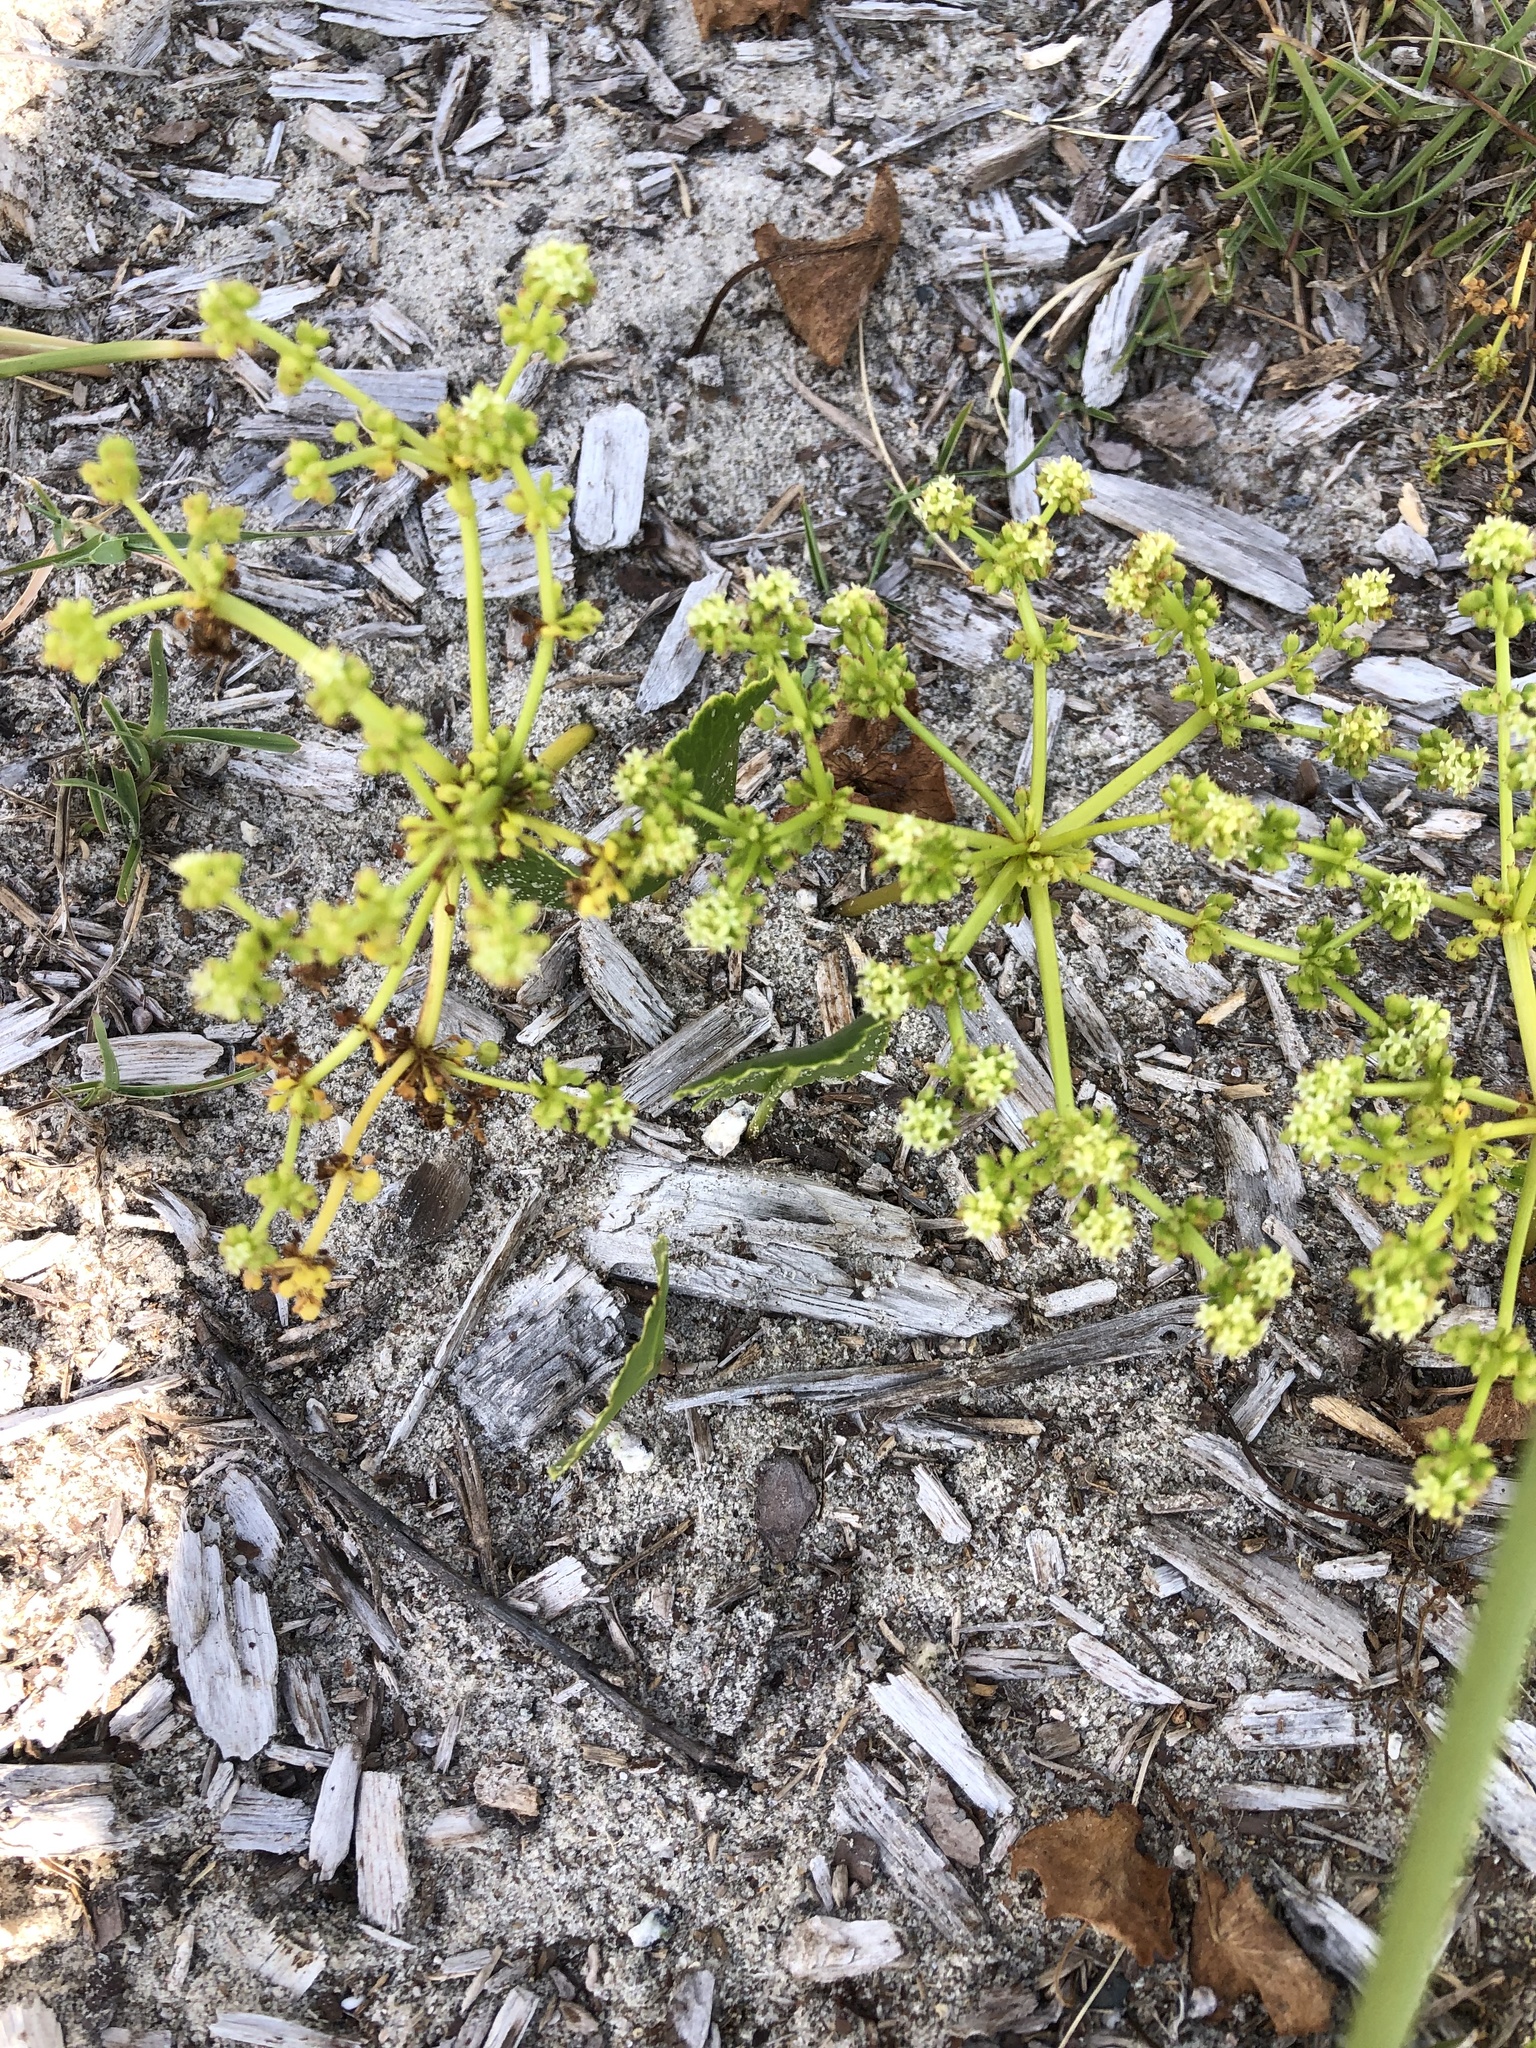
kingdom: Plantae
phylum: Tracheophyta
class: Magnoliopsida
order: Apiales
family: Araliaceae
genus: Hydrocotyle
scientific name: Hydrocotyle bonariensis
